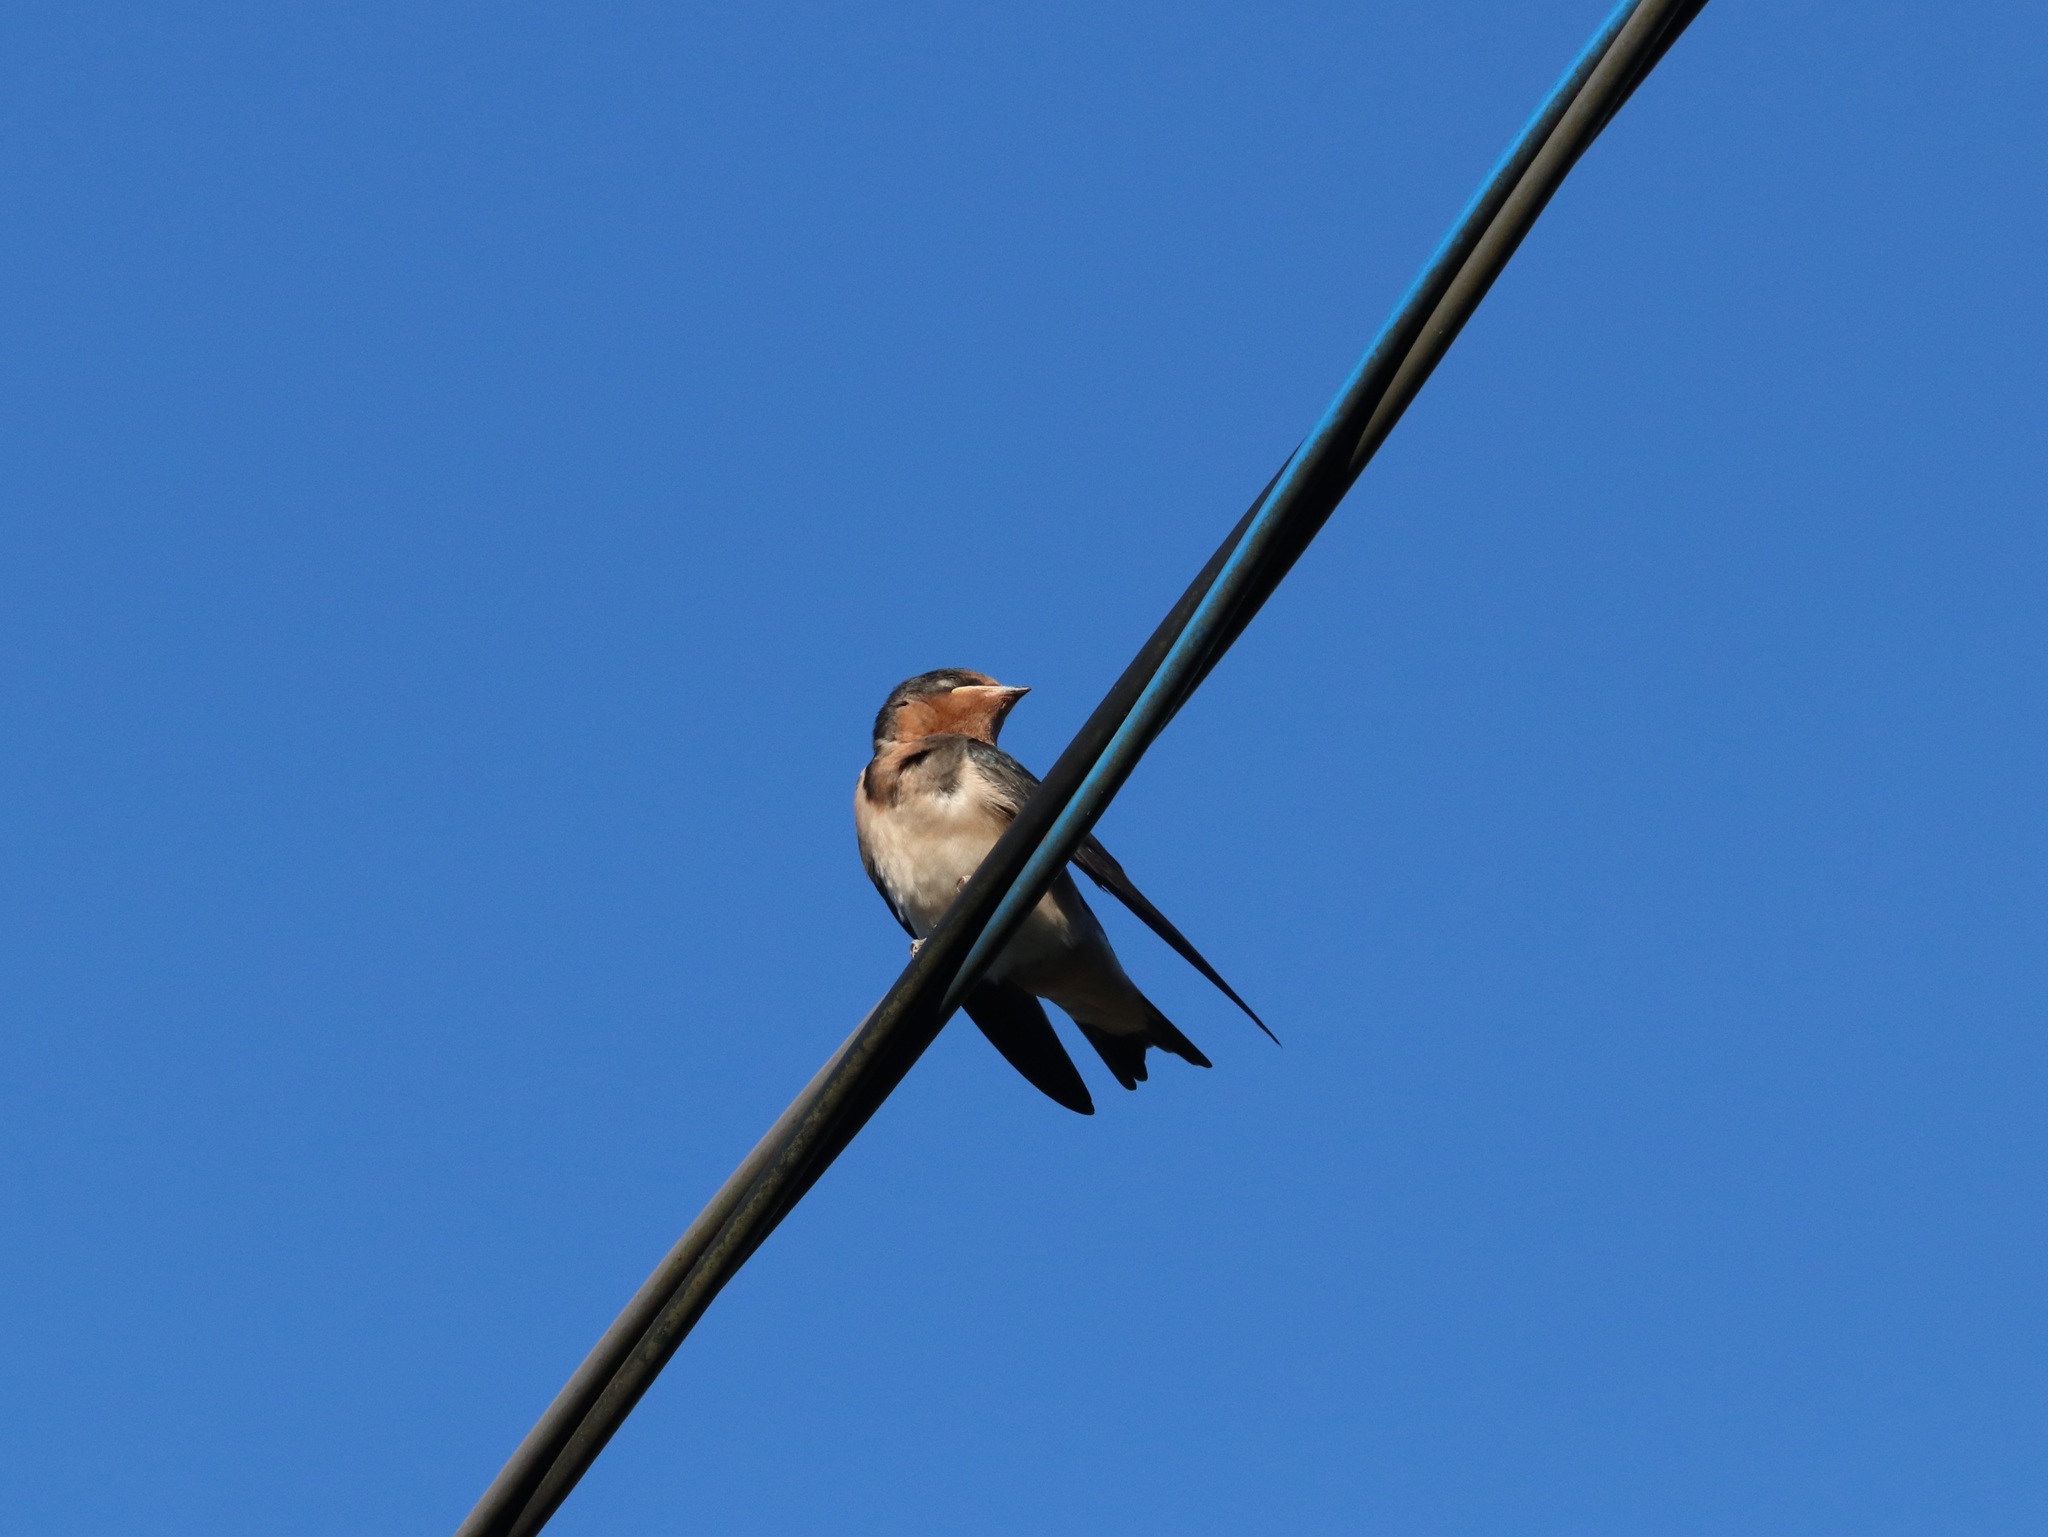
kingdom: Animalia
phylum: Chordata
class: Aves
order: Passeriformes
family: Hirundinidae
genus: Hirundo
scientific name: Hirundo rustica
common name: Barn swallow
